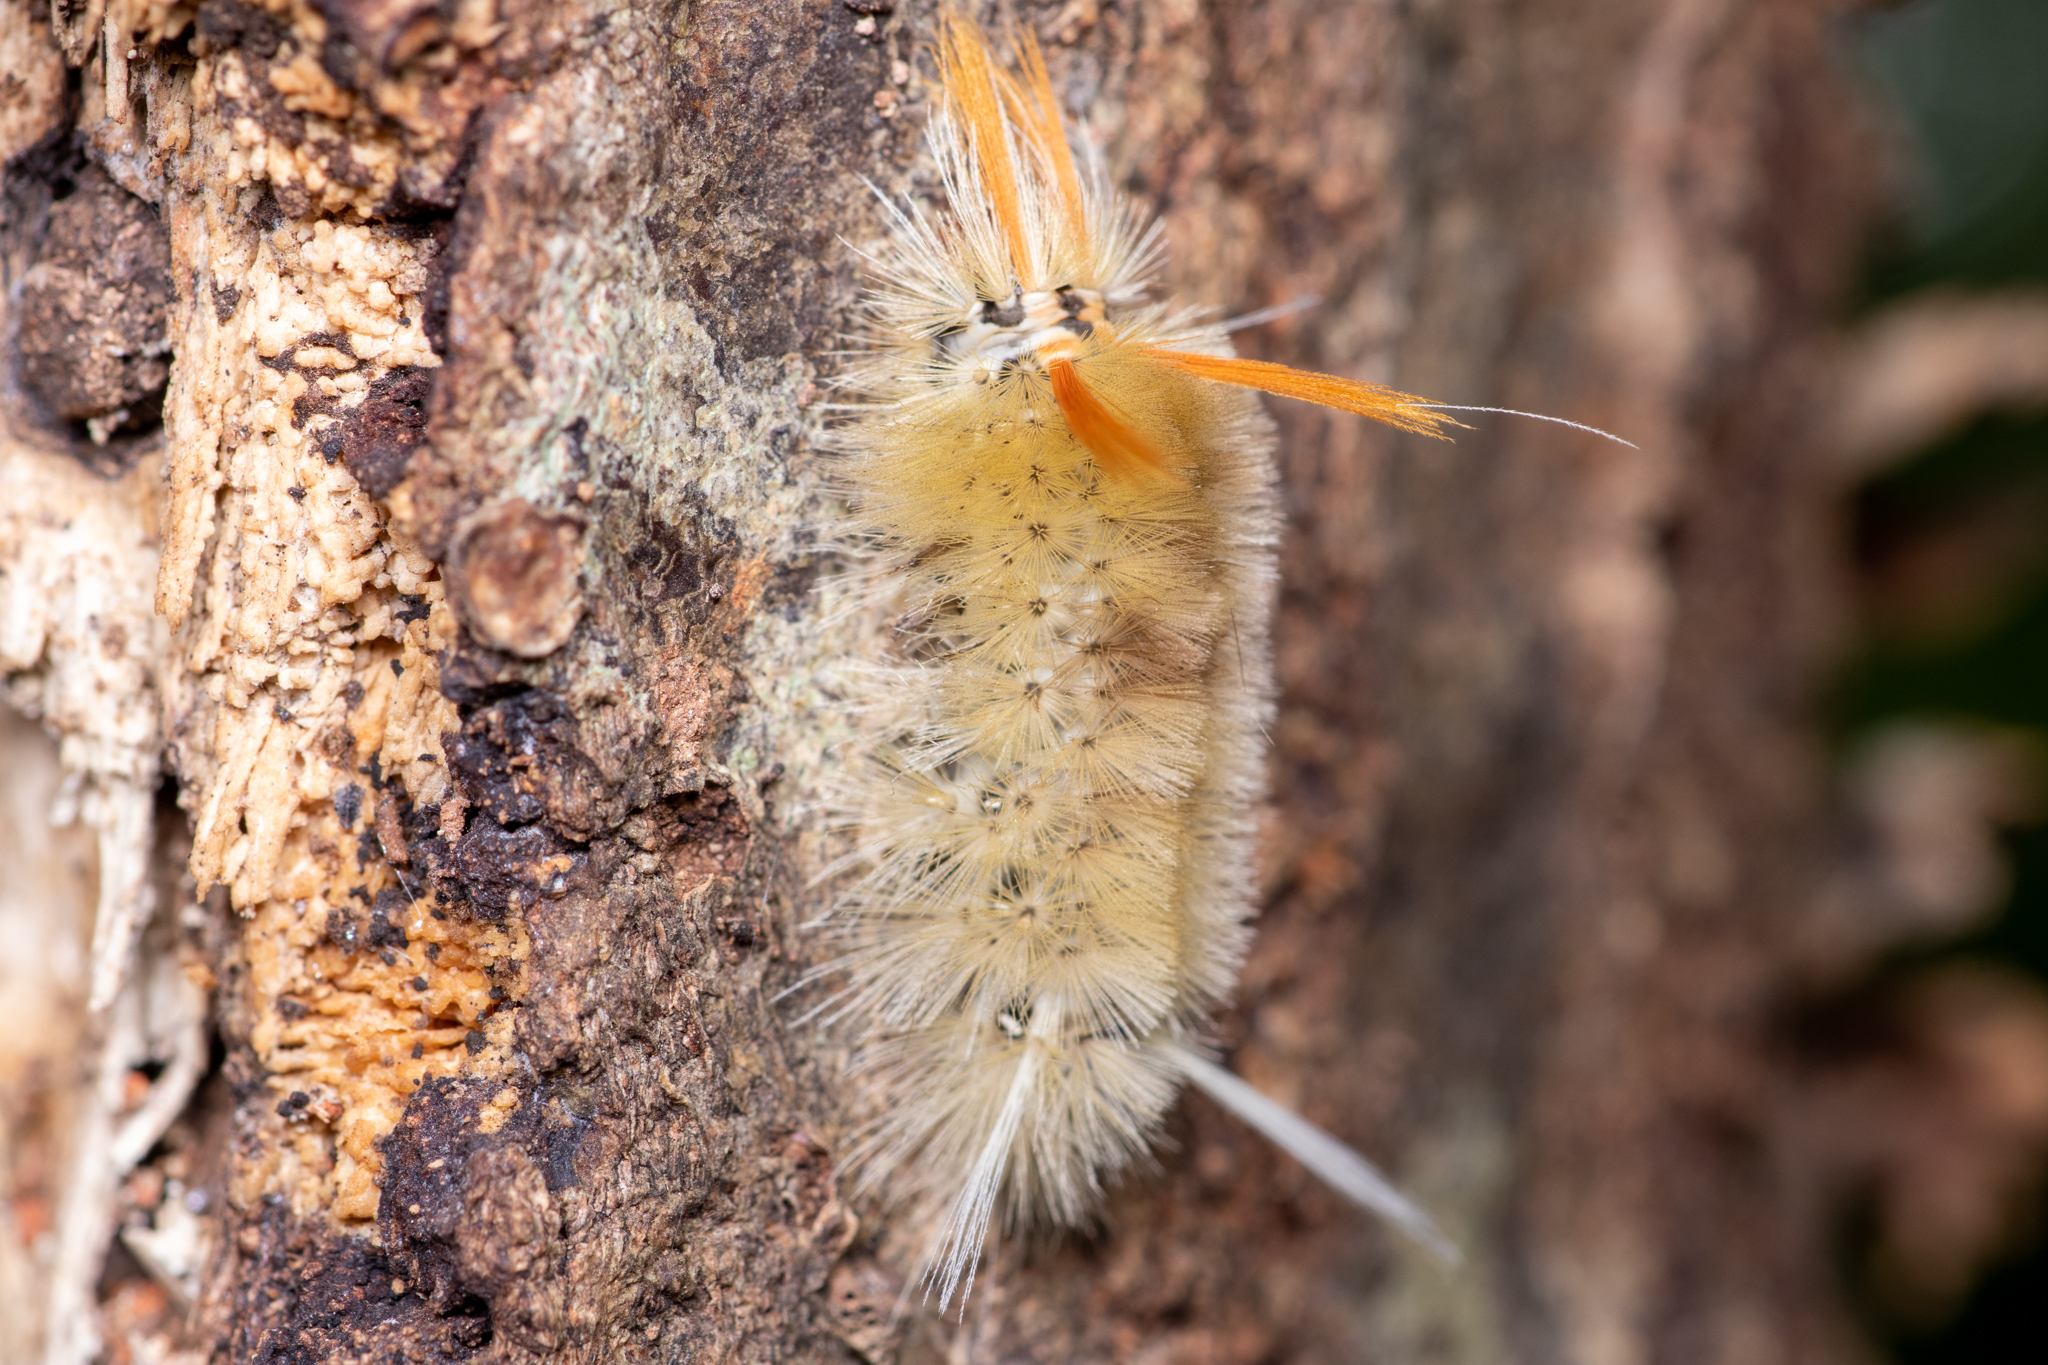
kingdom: Animalia
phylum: Arthropoda
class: Insecta
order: Lepidoptera
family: Erebidae
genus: Halysidota
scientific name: Halysidota harrisii
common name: Sycamore tussock moth
